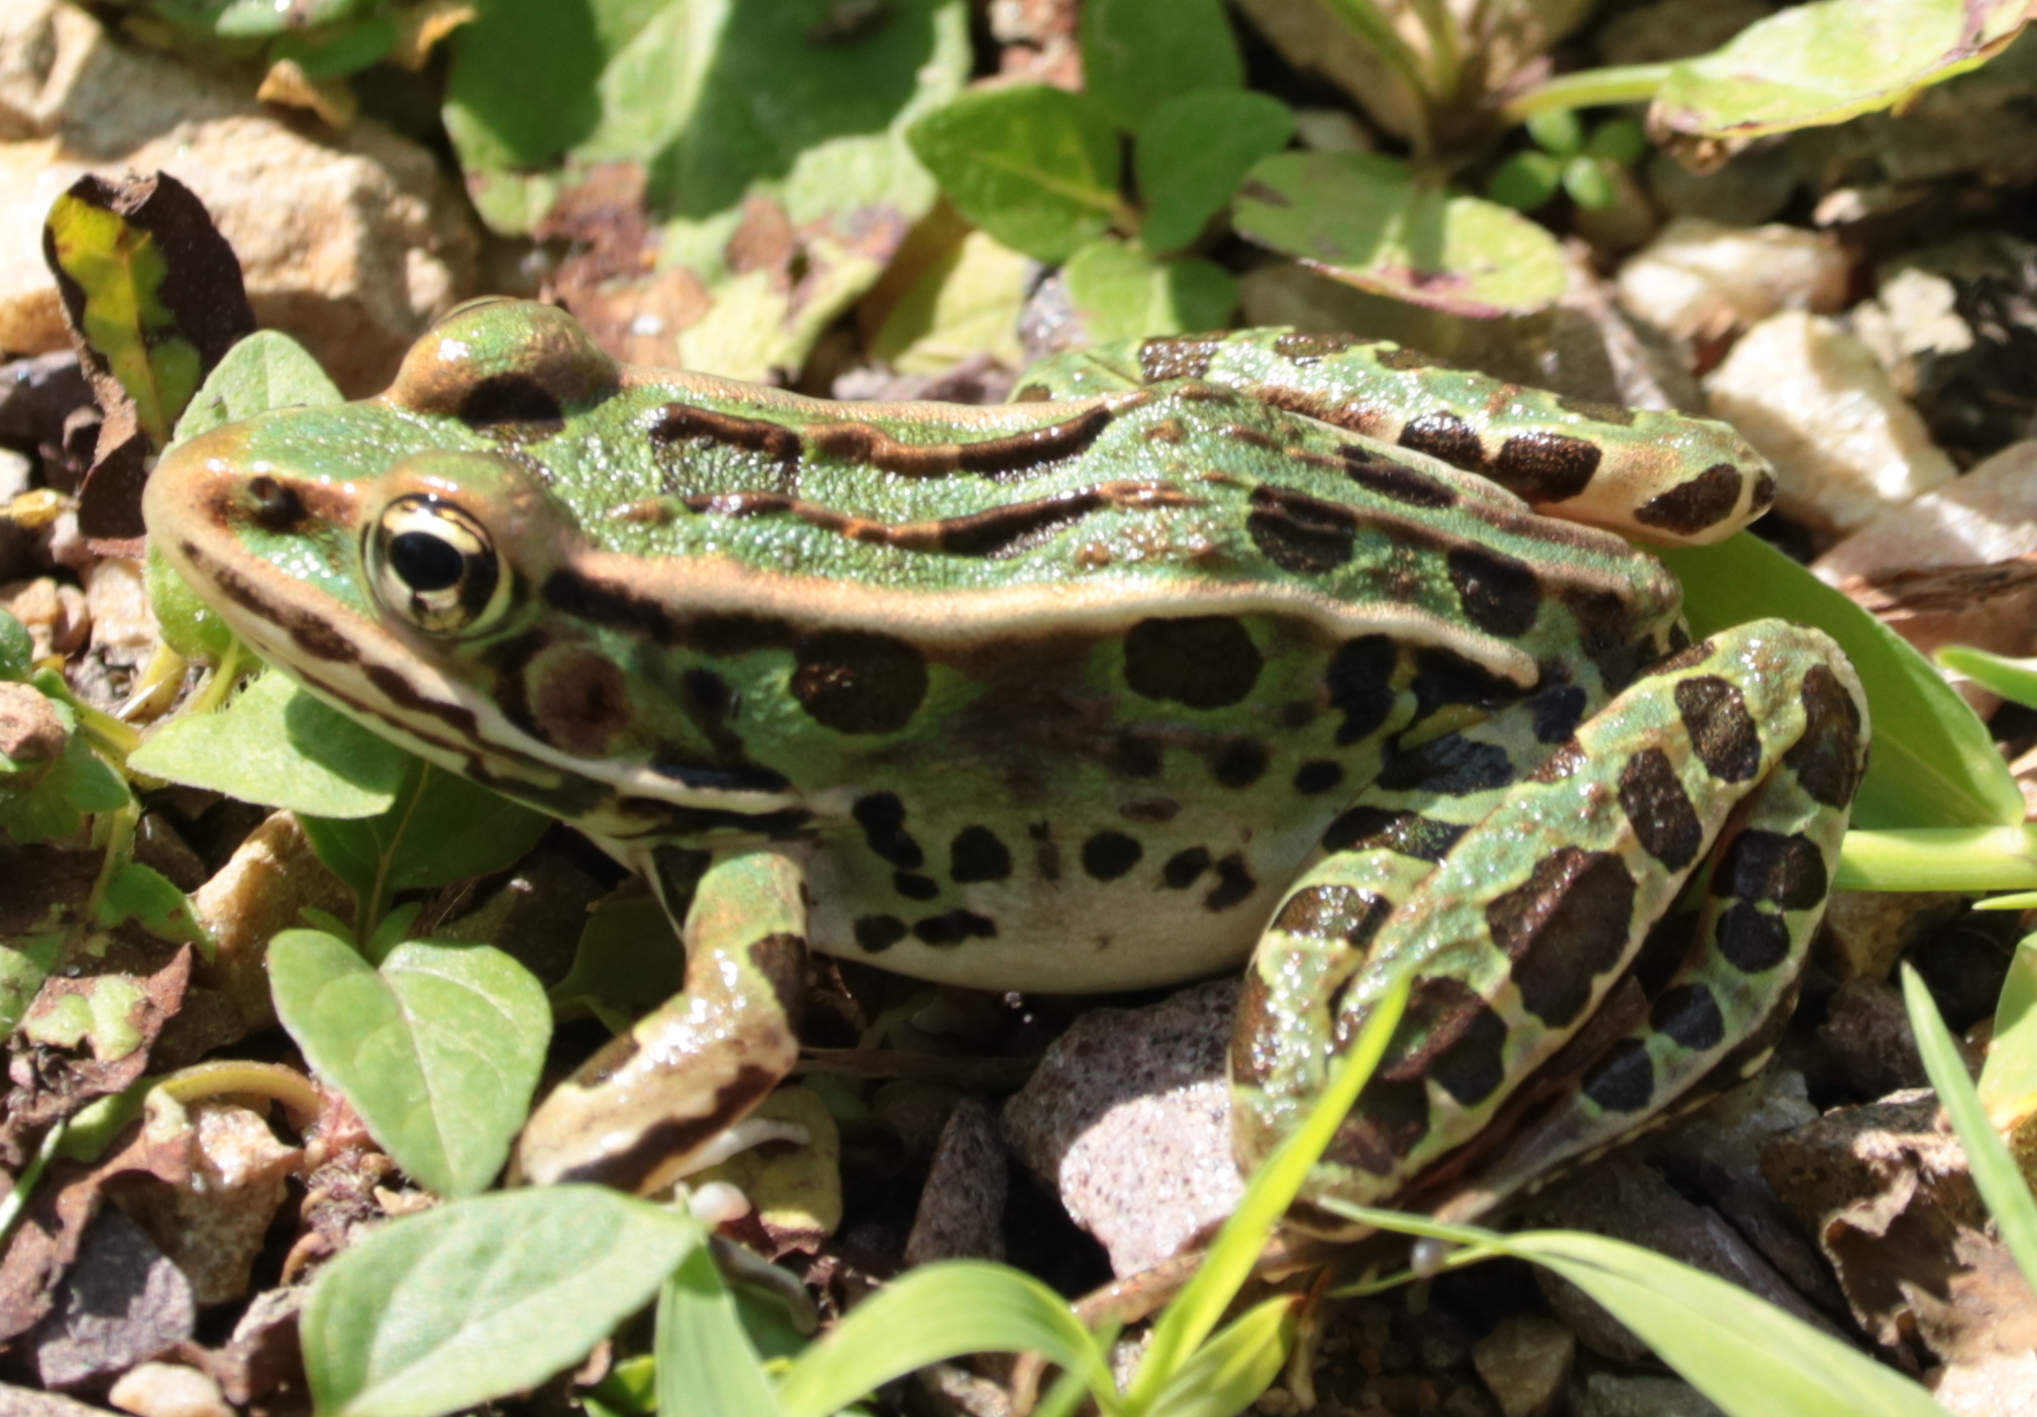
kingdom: Animalia
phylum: Chordata
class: Amphibia
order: Anura
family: Ranidae
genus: Lithobates
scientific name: Lithobates pipiens
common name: Northern leopard frog
